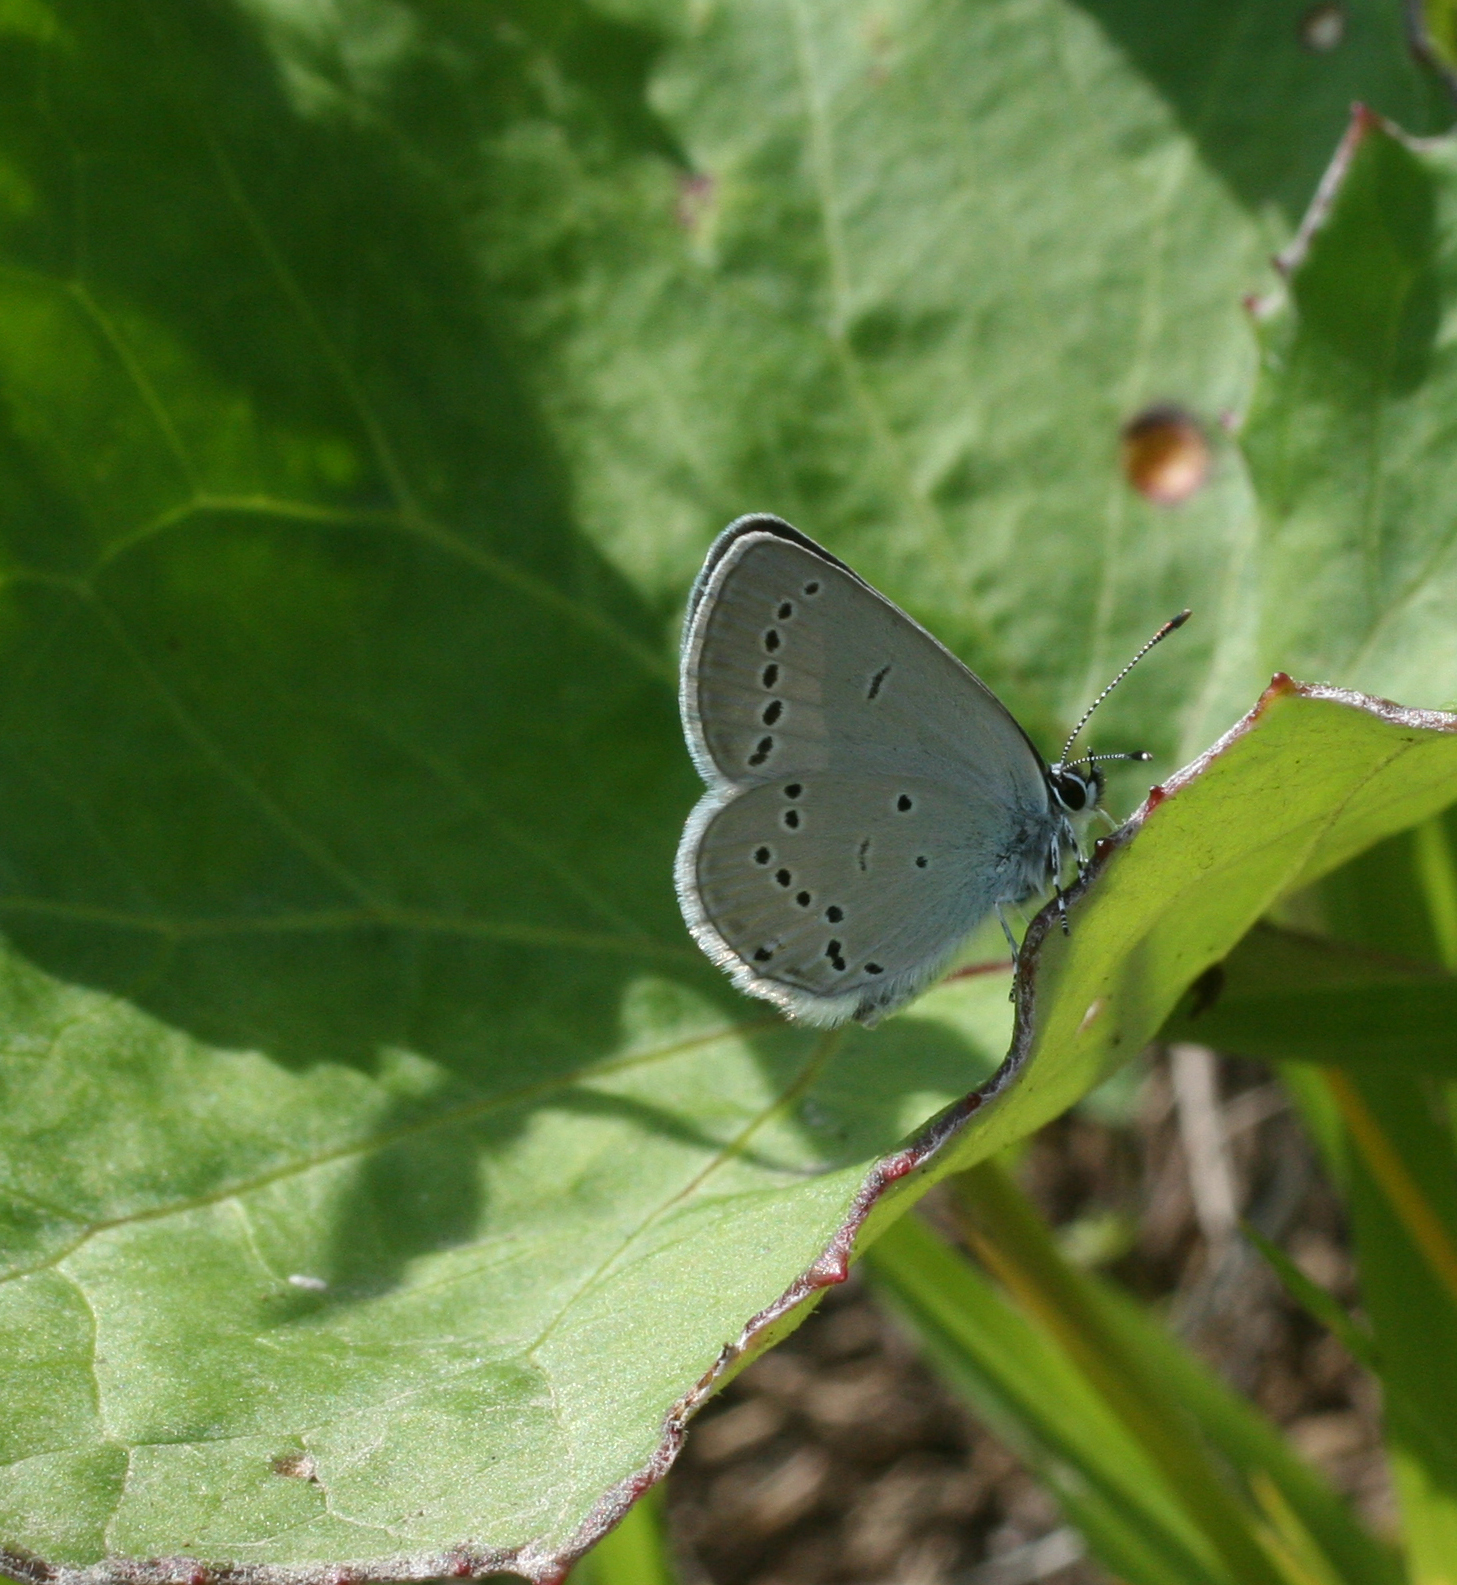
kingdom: Animalia
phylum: Arthropoda
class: Insecta
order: Lepidoptera
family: Lycaenidae
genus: Cupido
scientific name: Cupido minimus
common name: Small blue
